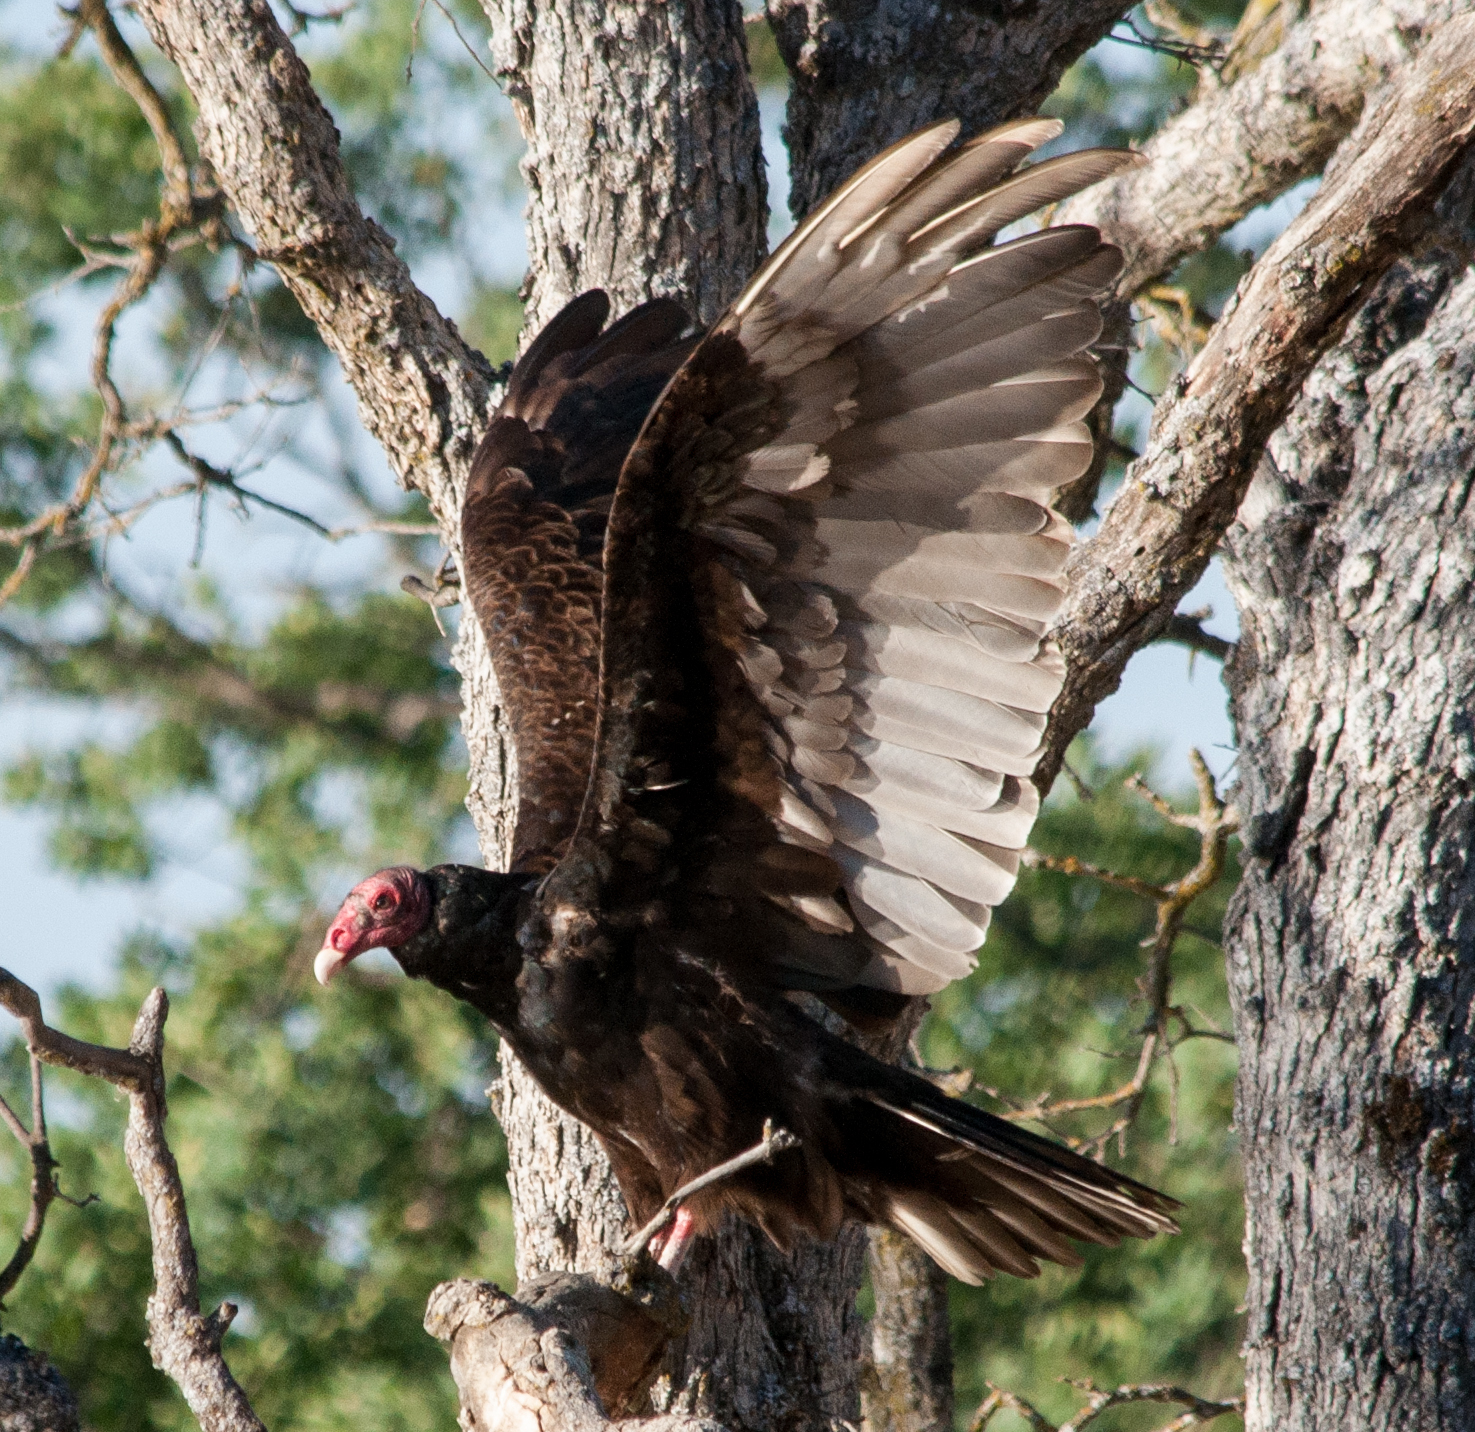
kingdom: Animalia
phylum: Chordata
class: Aves
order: Accipitriformes
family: Cathartidae
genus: Cathartes
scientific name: Cathartes aura
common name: Turkey vulture
